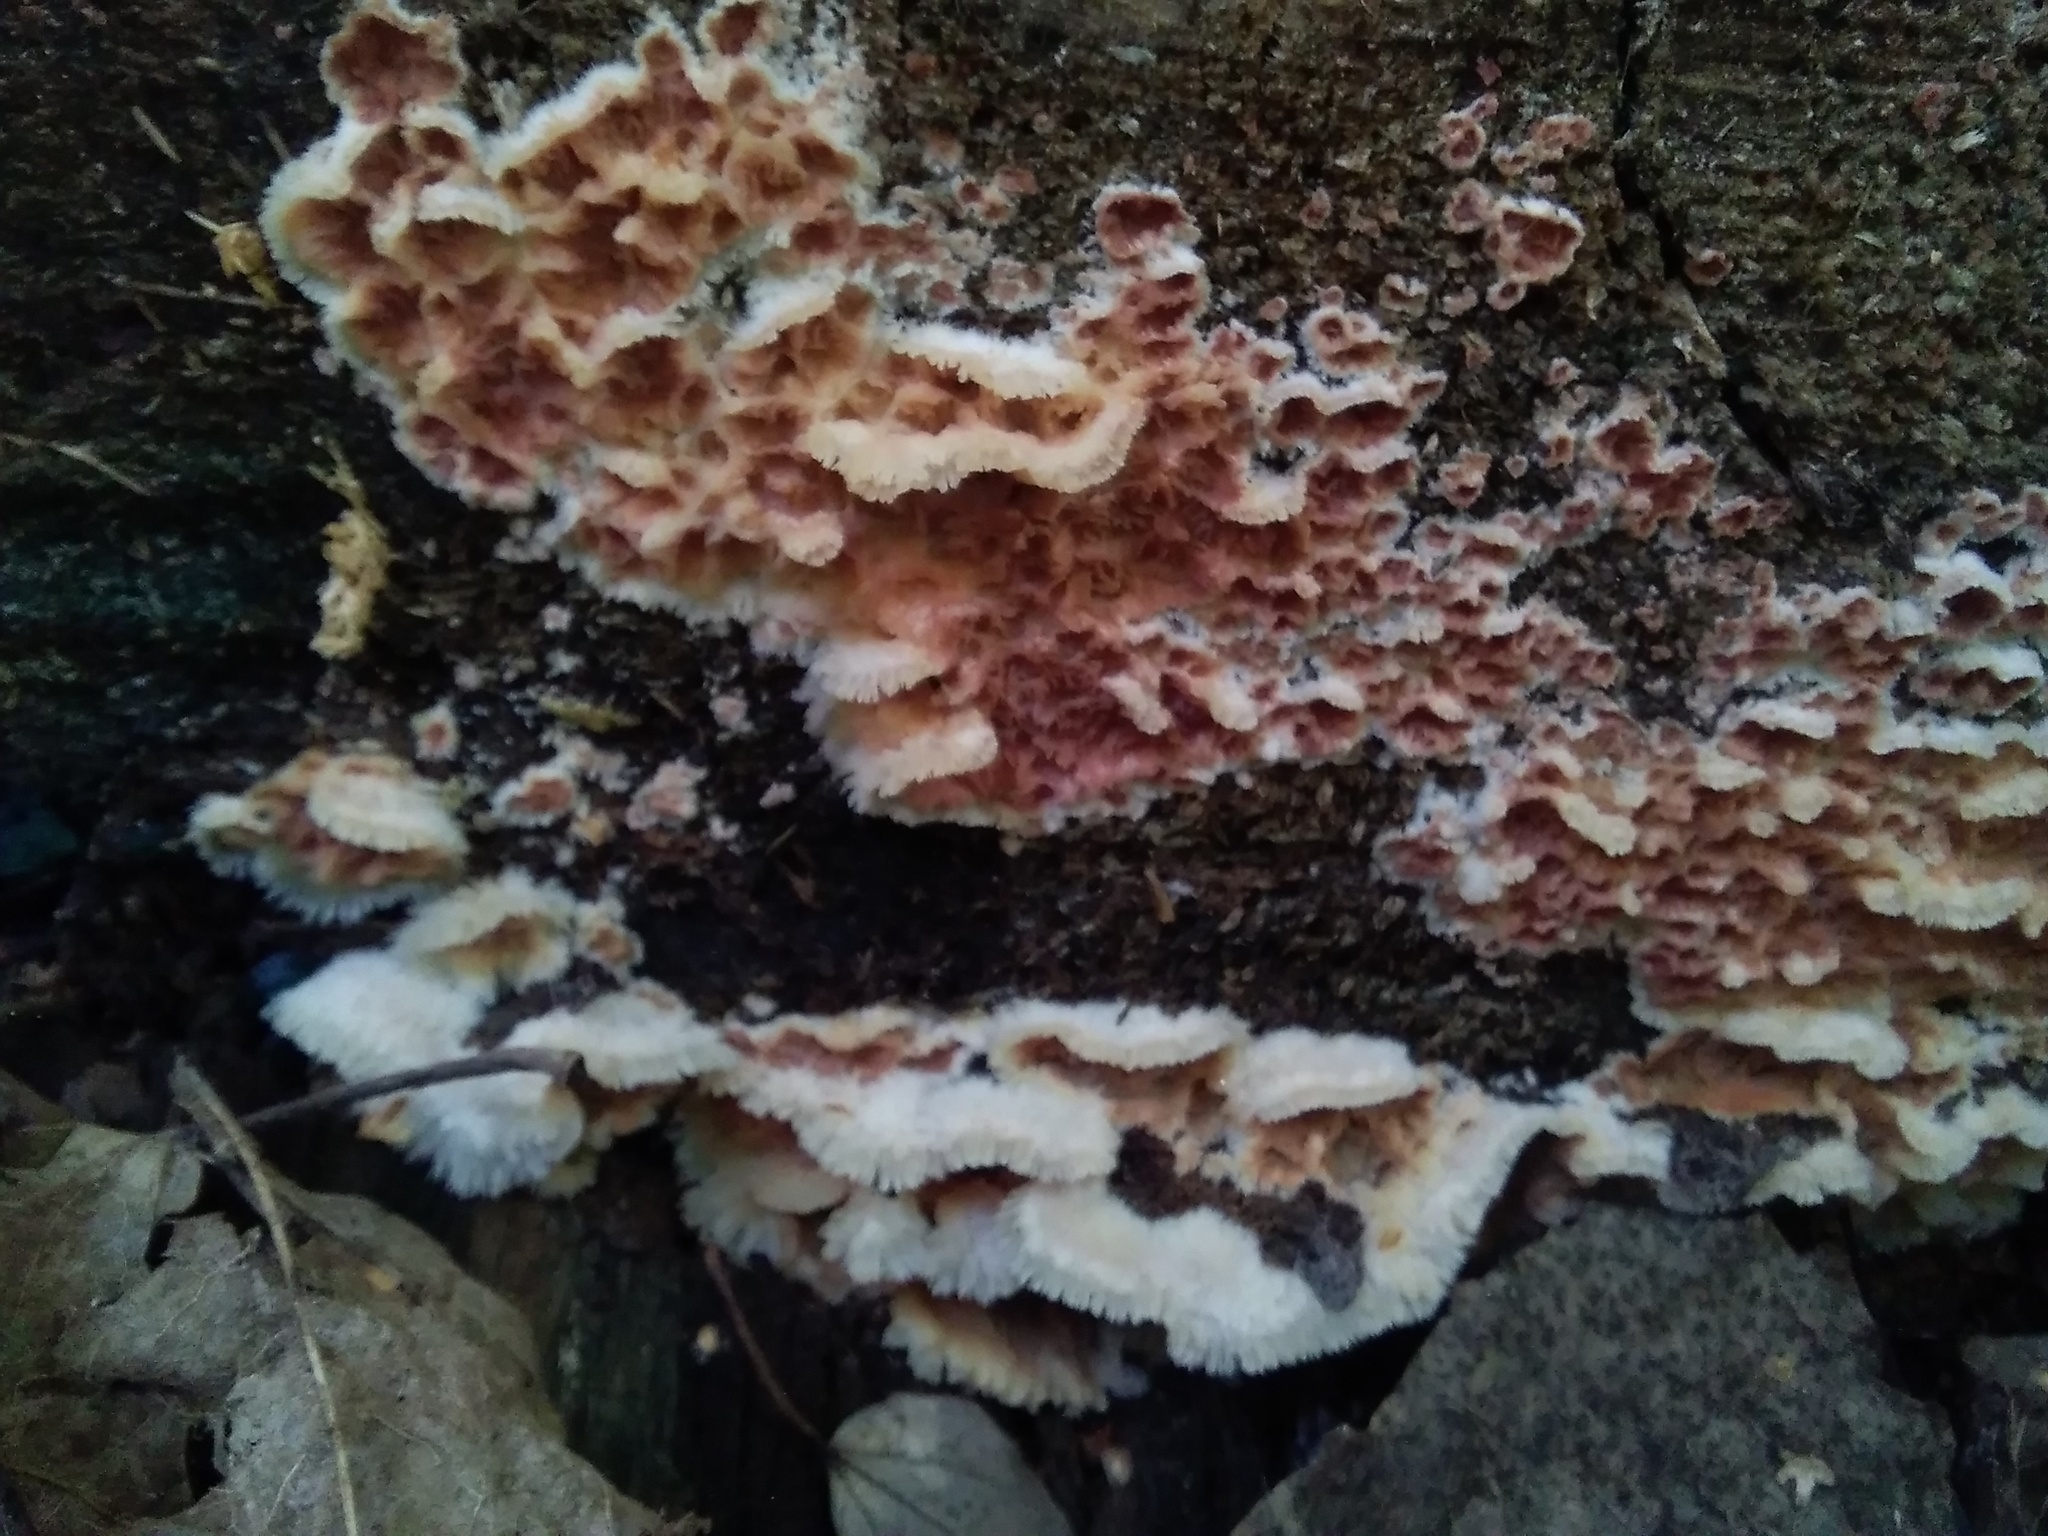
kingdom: Fungi
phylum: Basidiomycota
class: Agaricomycetes
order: Polyporales
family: Meruliaceae
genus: Phlebia
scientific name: Phlebia tremellosa
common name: Jelly rot
